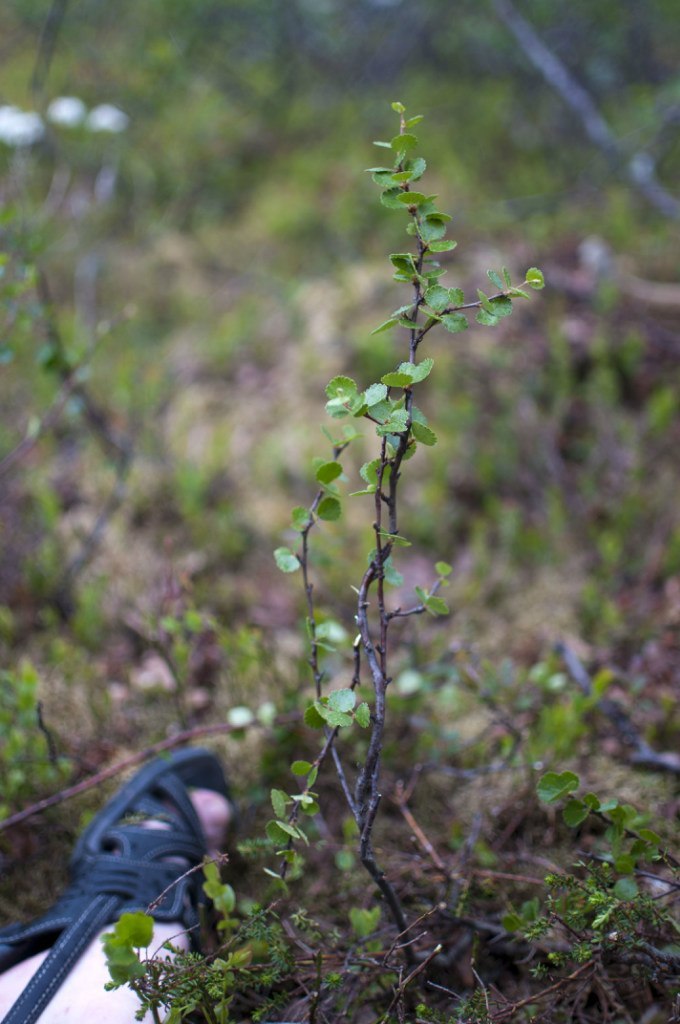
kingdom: Plantae
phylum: Tracheophyta
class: Magnoliopsida
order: Fagales
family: Betulaceae
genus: Betula
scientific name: Betula nana
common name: Arctic dwarf birch
